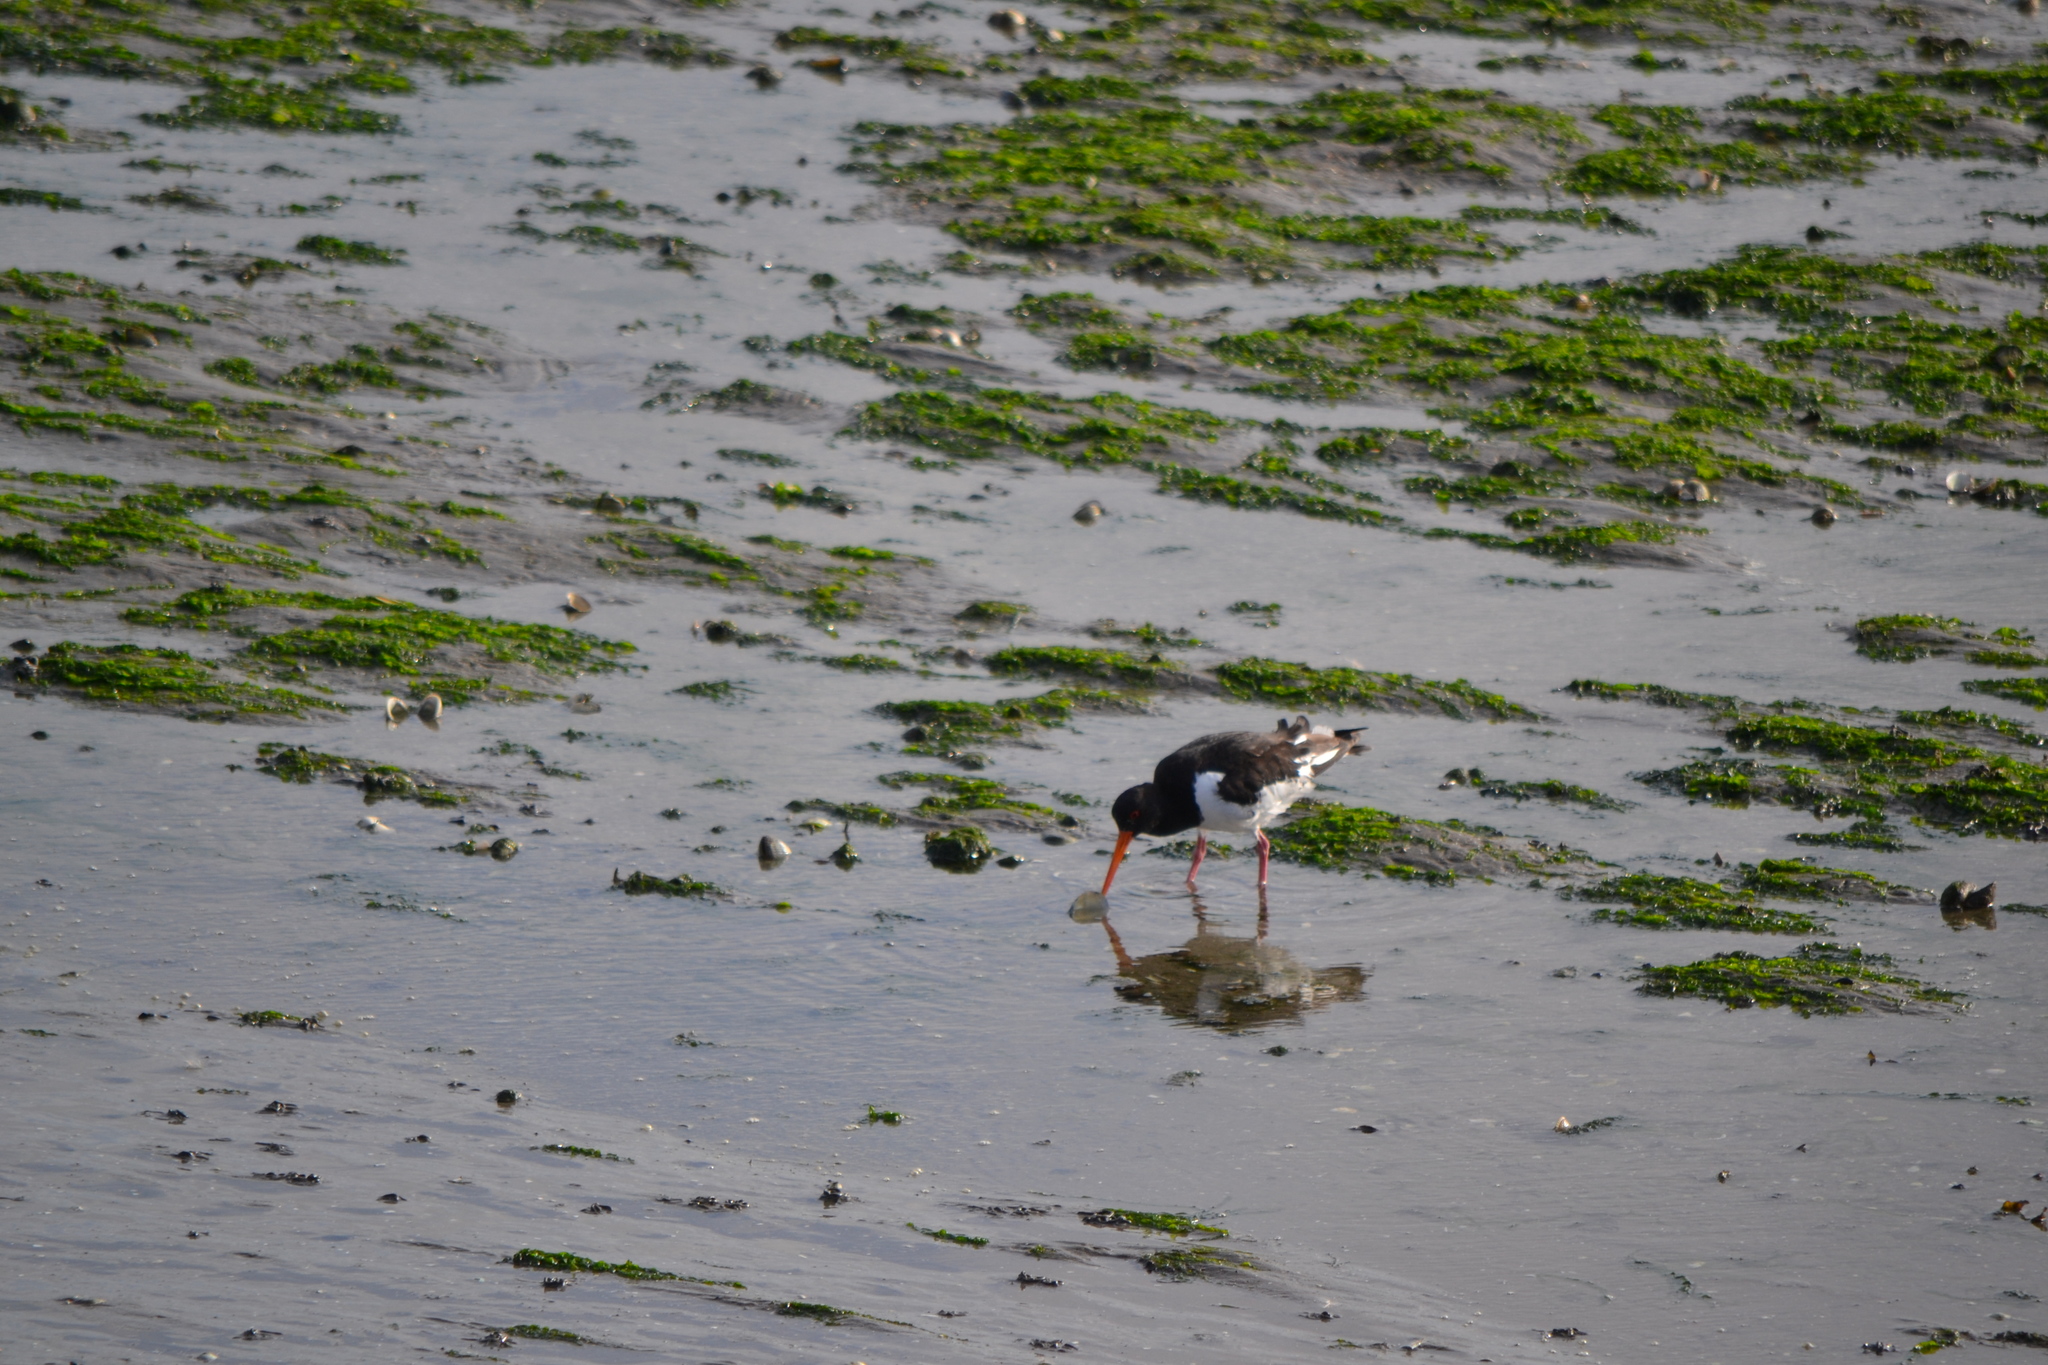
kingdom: Animalia
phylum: Chordata
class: Aves
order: Charadriiformes
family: Haematopodidae
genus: Haematopus
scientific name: Haematopus ostralegus
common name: Eurasian oystercatcher
